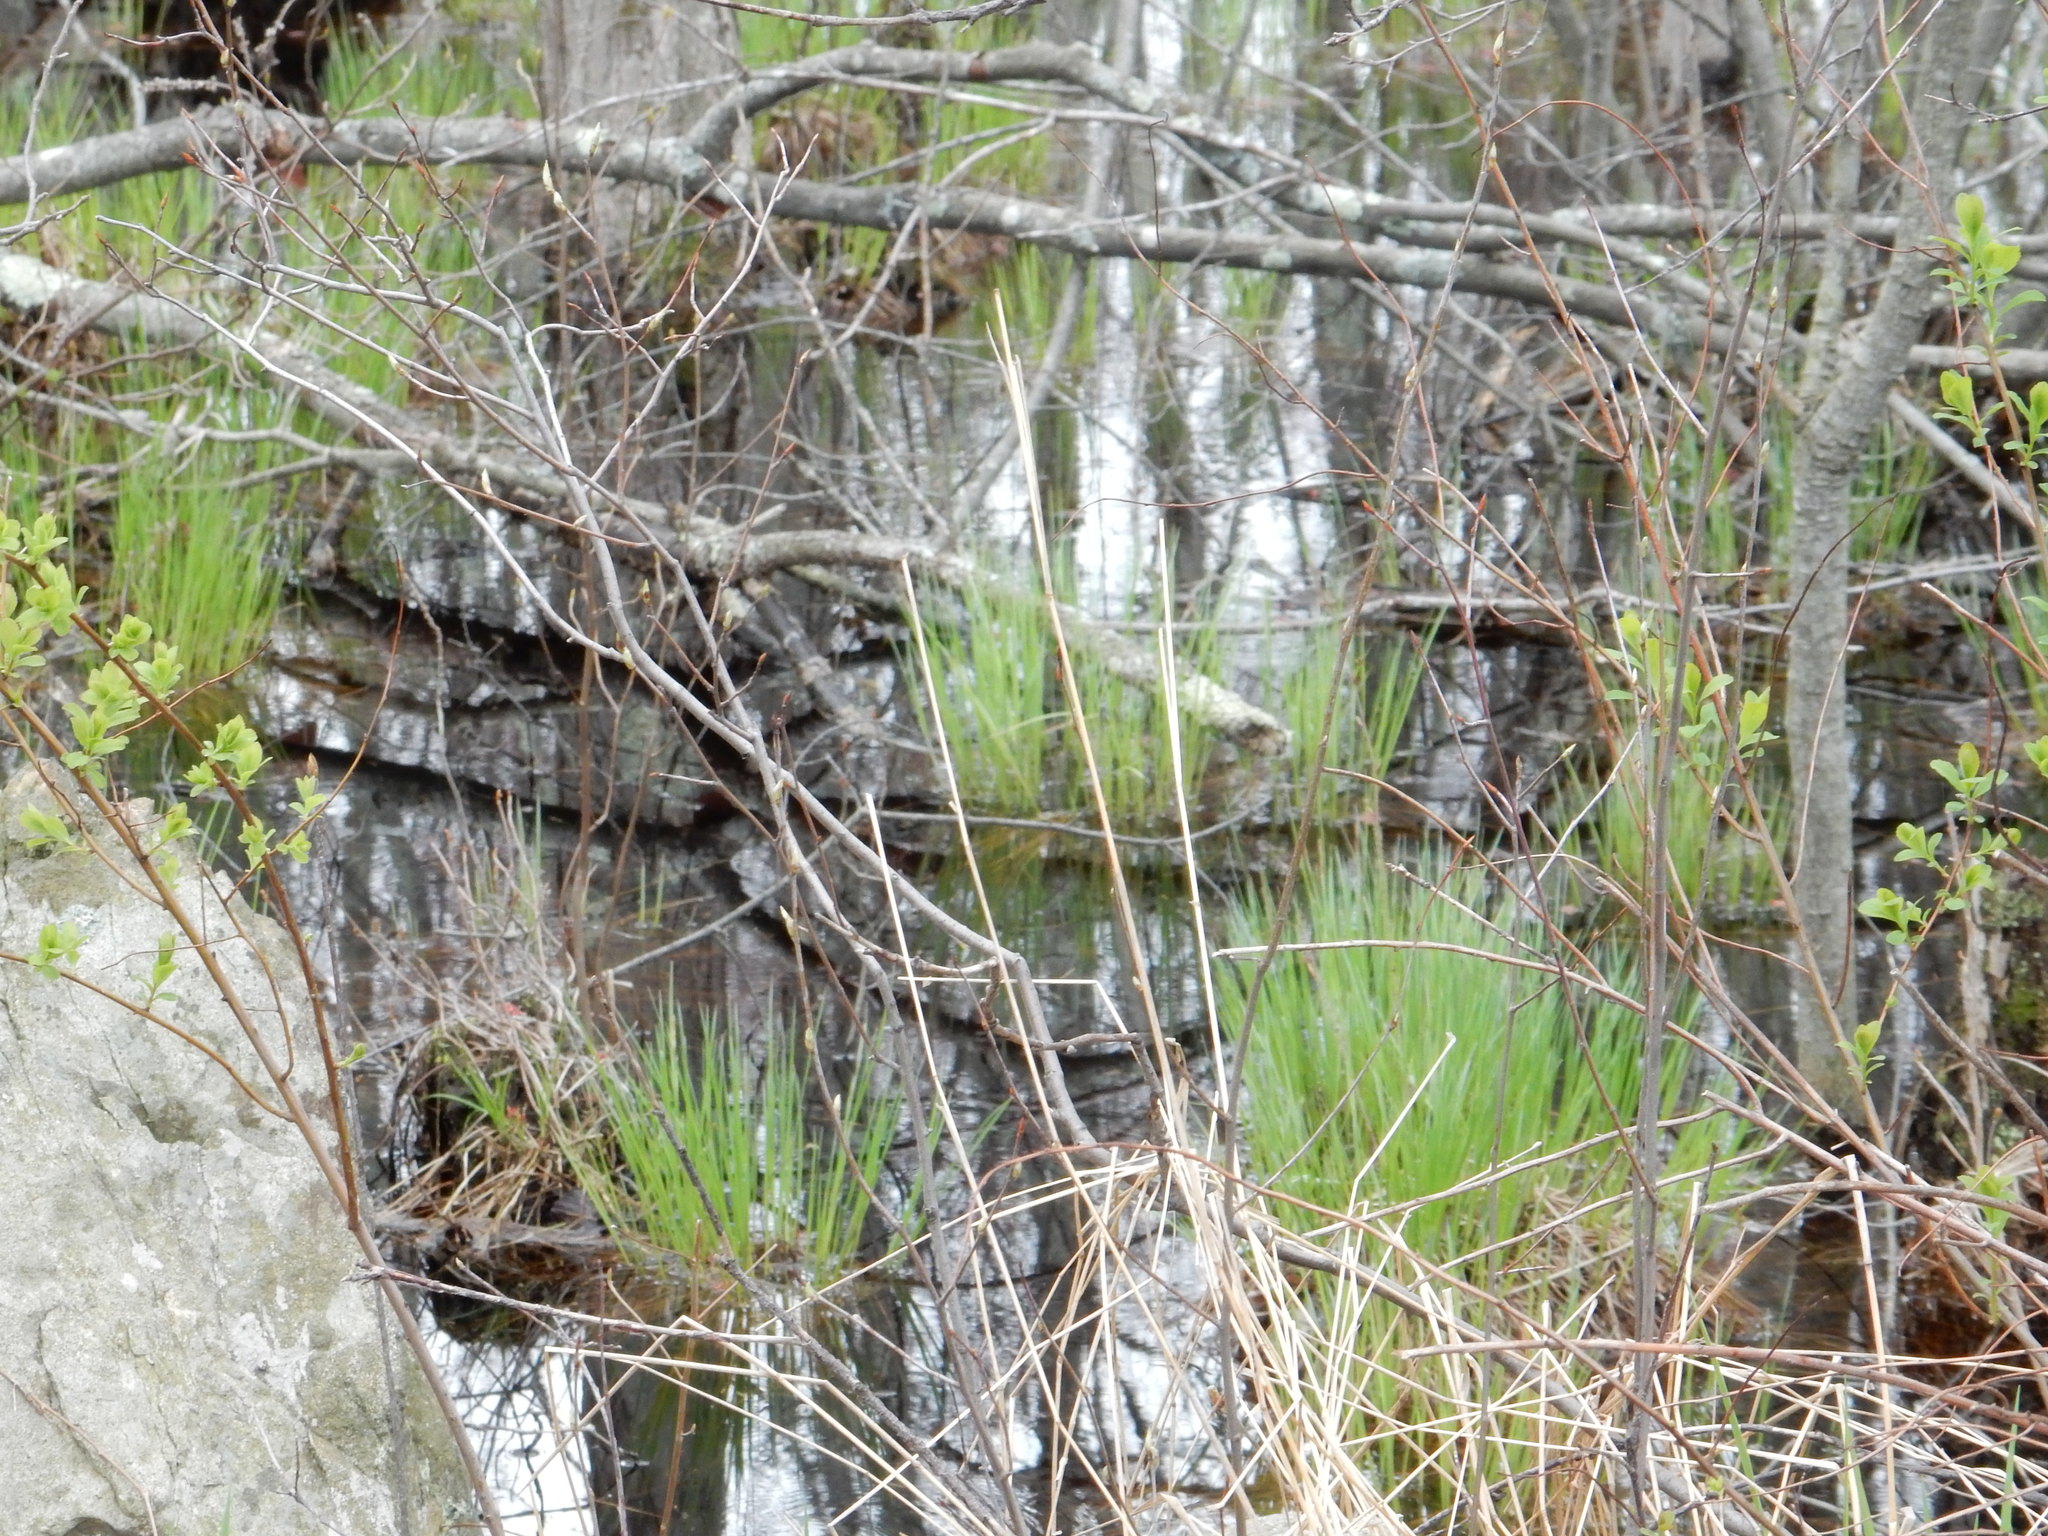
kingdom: Plantae
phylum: Tracheophyta
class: Liliopsida
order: Poales
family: Cyperaceae
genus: Carex
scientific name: Carex stricta
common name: Hummock sedge
